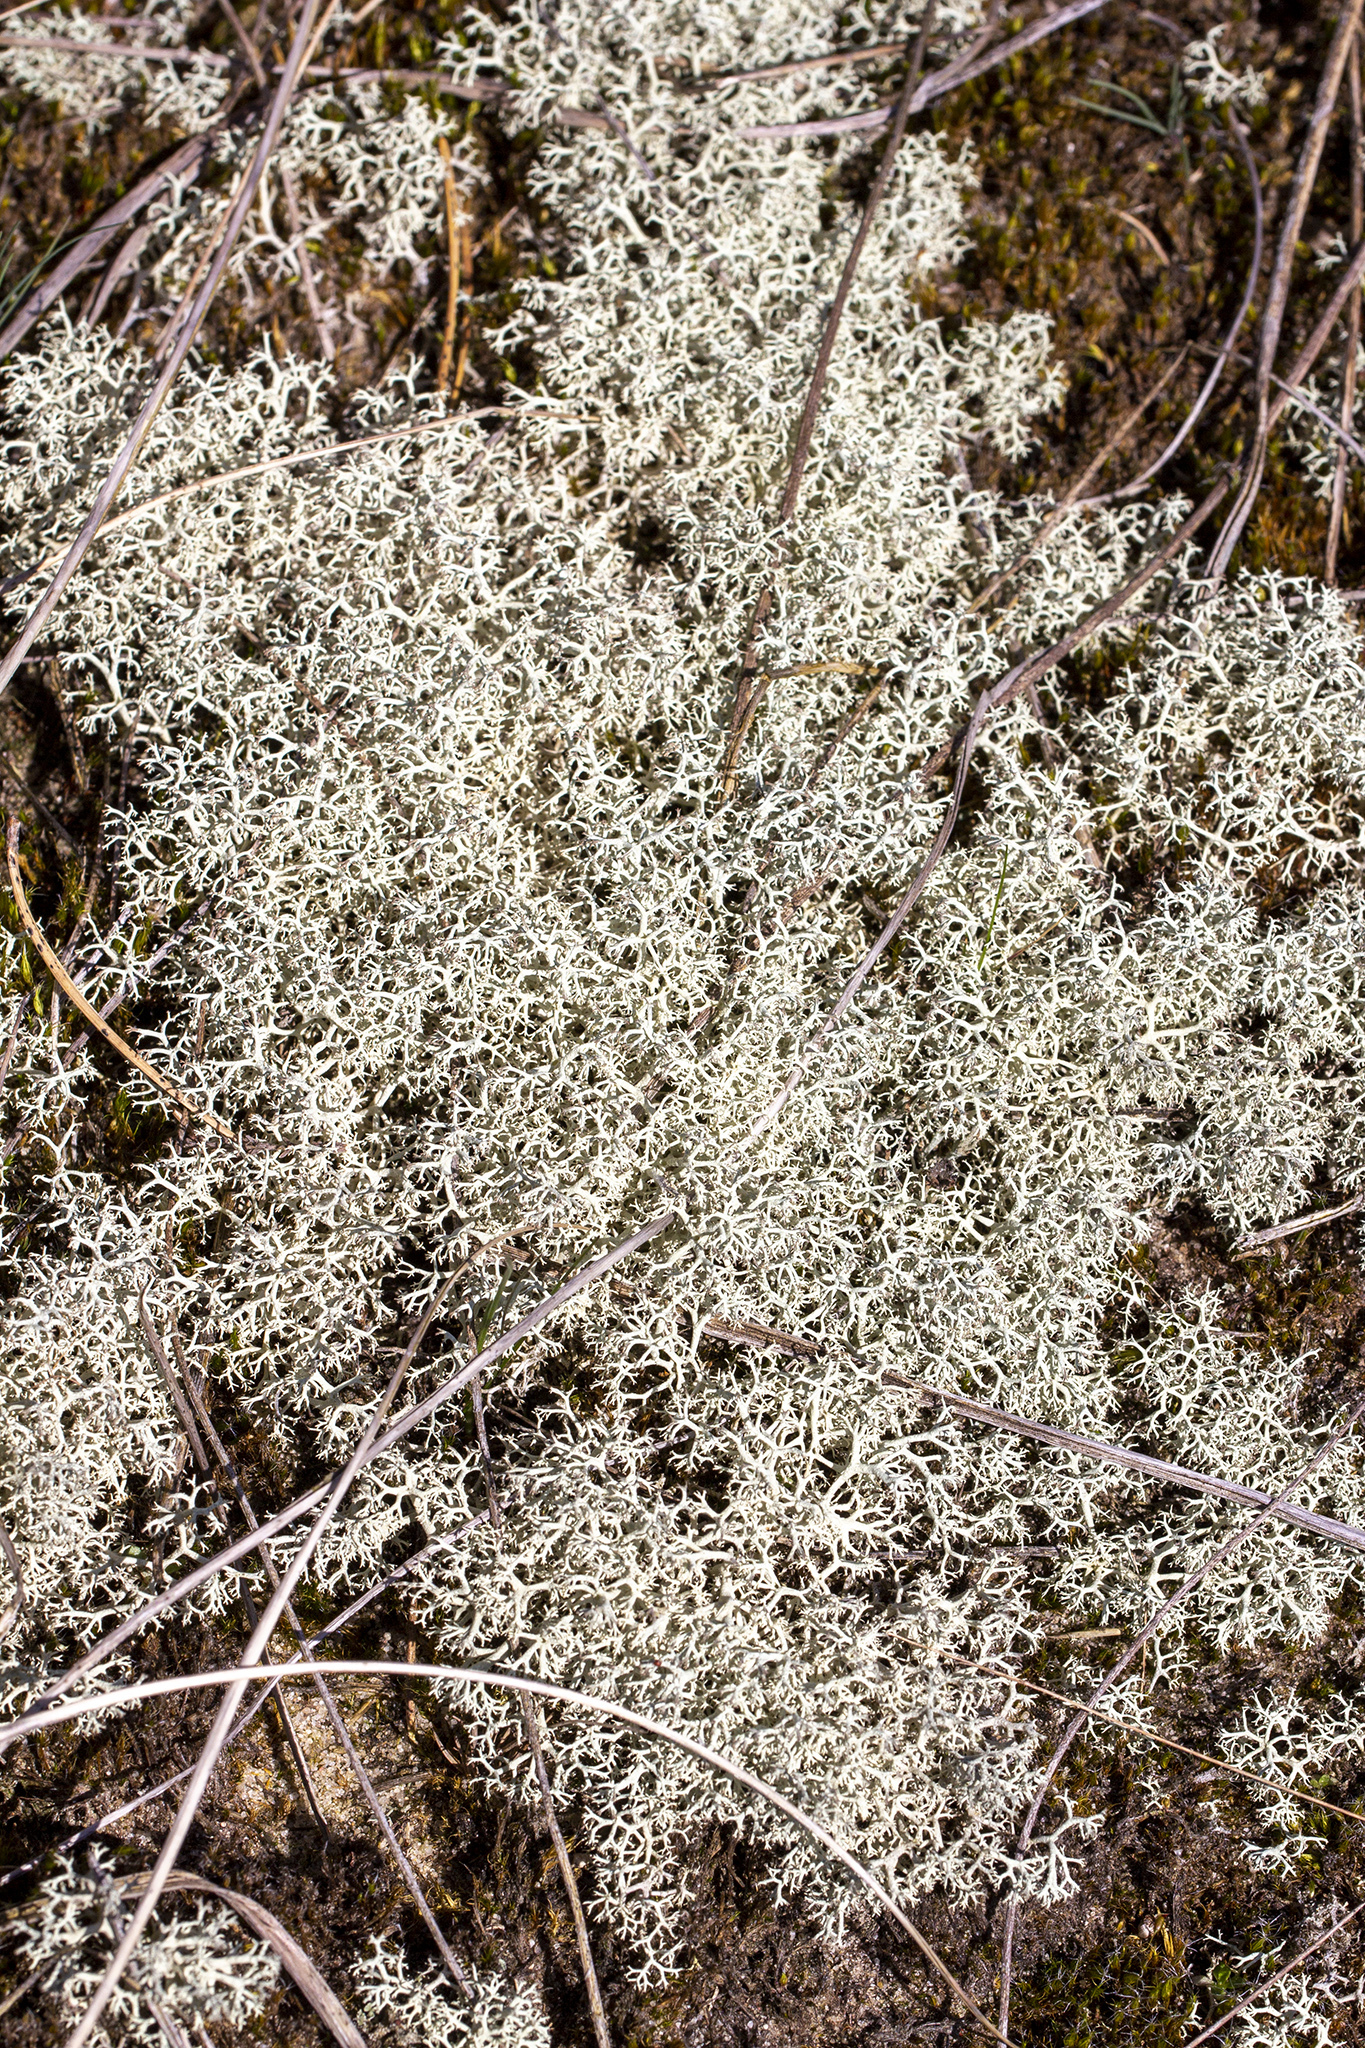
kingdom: Fungi
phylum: Ascomycota
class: Lecanoromycetes
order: Lecanorales
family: Cladoniaceae
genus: Cladonia
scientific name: Cladonia portentosa
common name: Reindeer lichen
